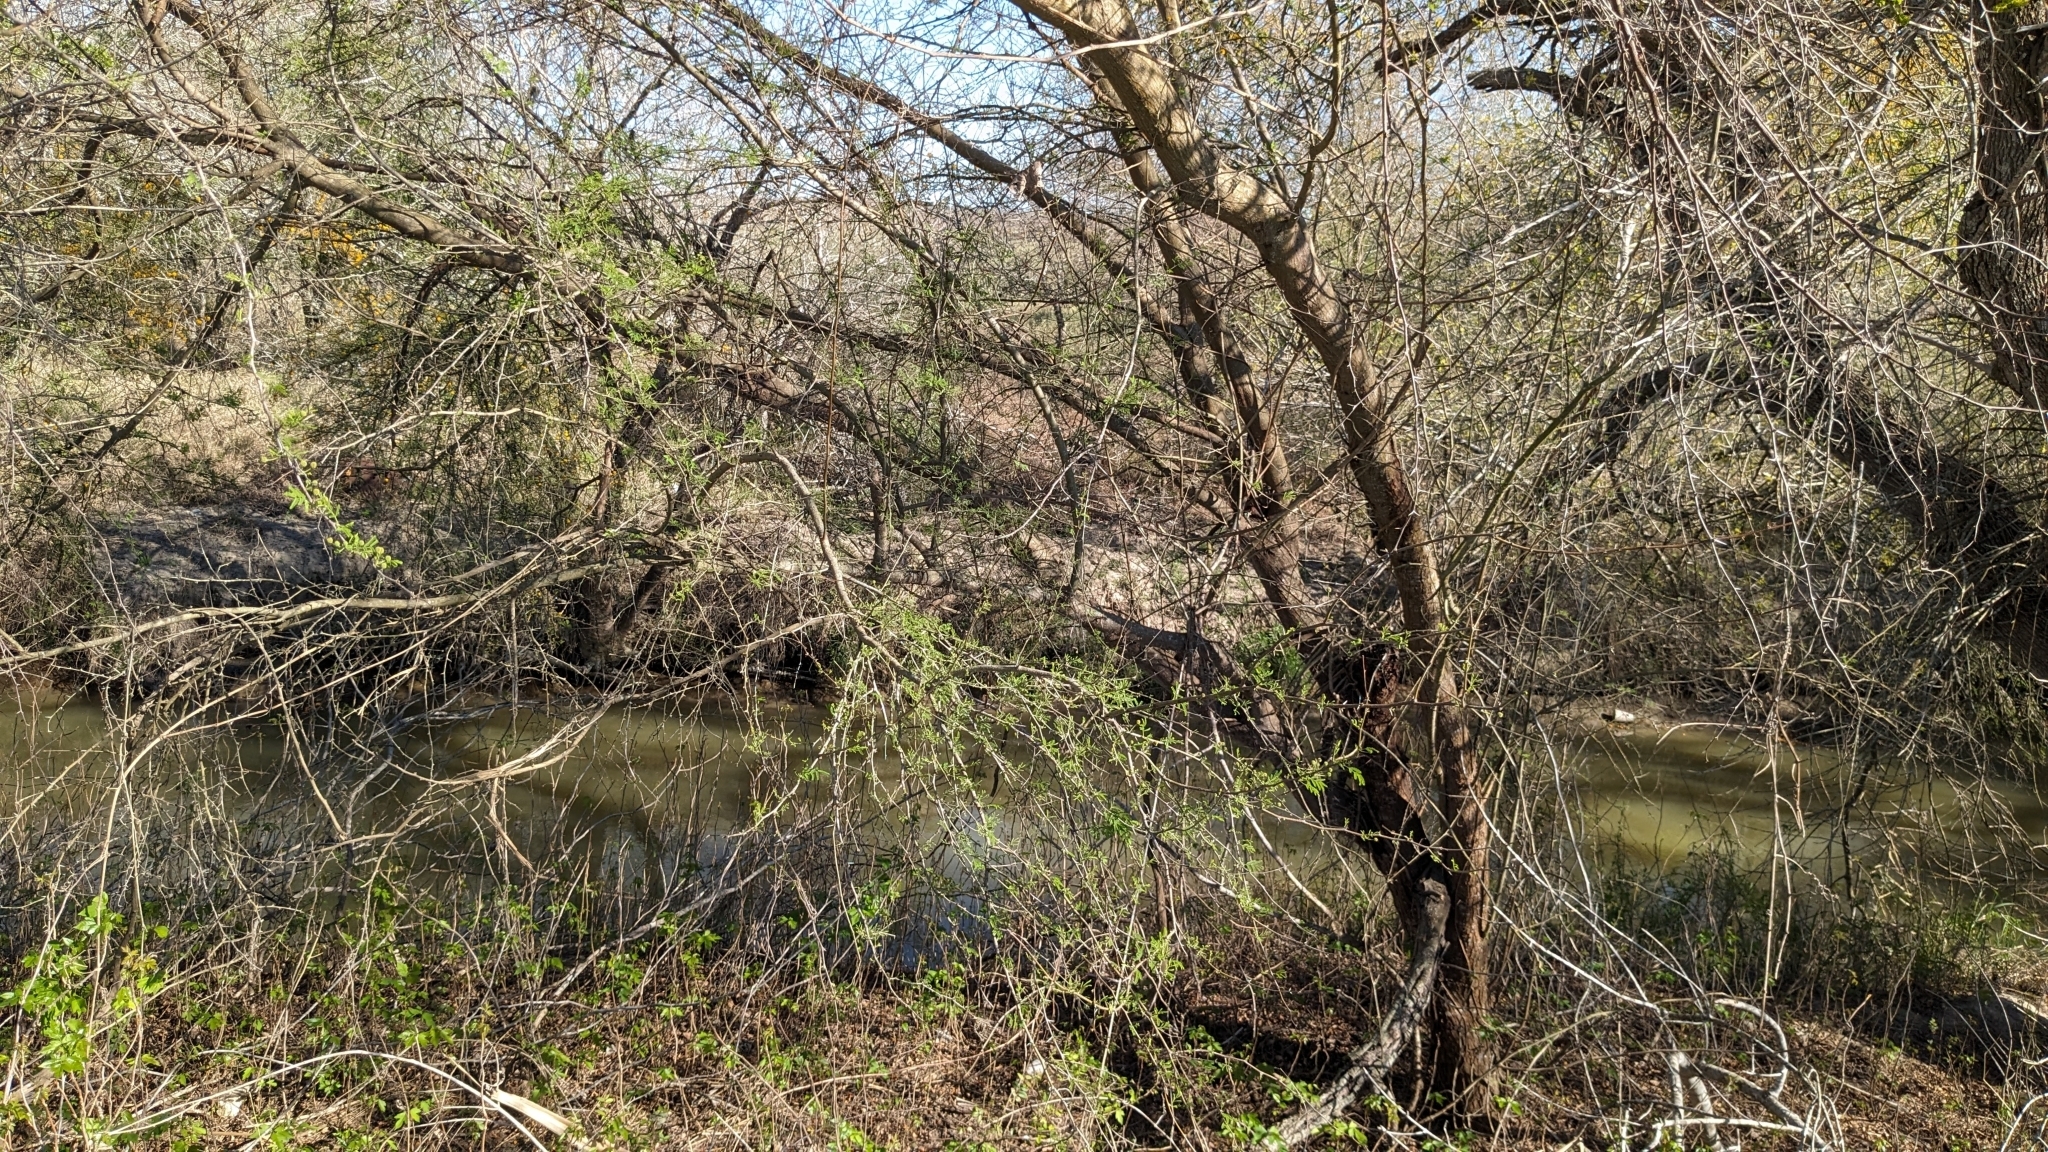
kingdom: Plantae
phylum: Tracheophyta
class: Magnoliopsida
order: Fabales
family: Fabaceae
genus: Vachellia
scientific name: Vachellia farnesiana
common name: Sweet acacia
